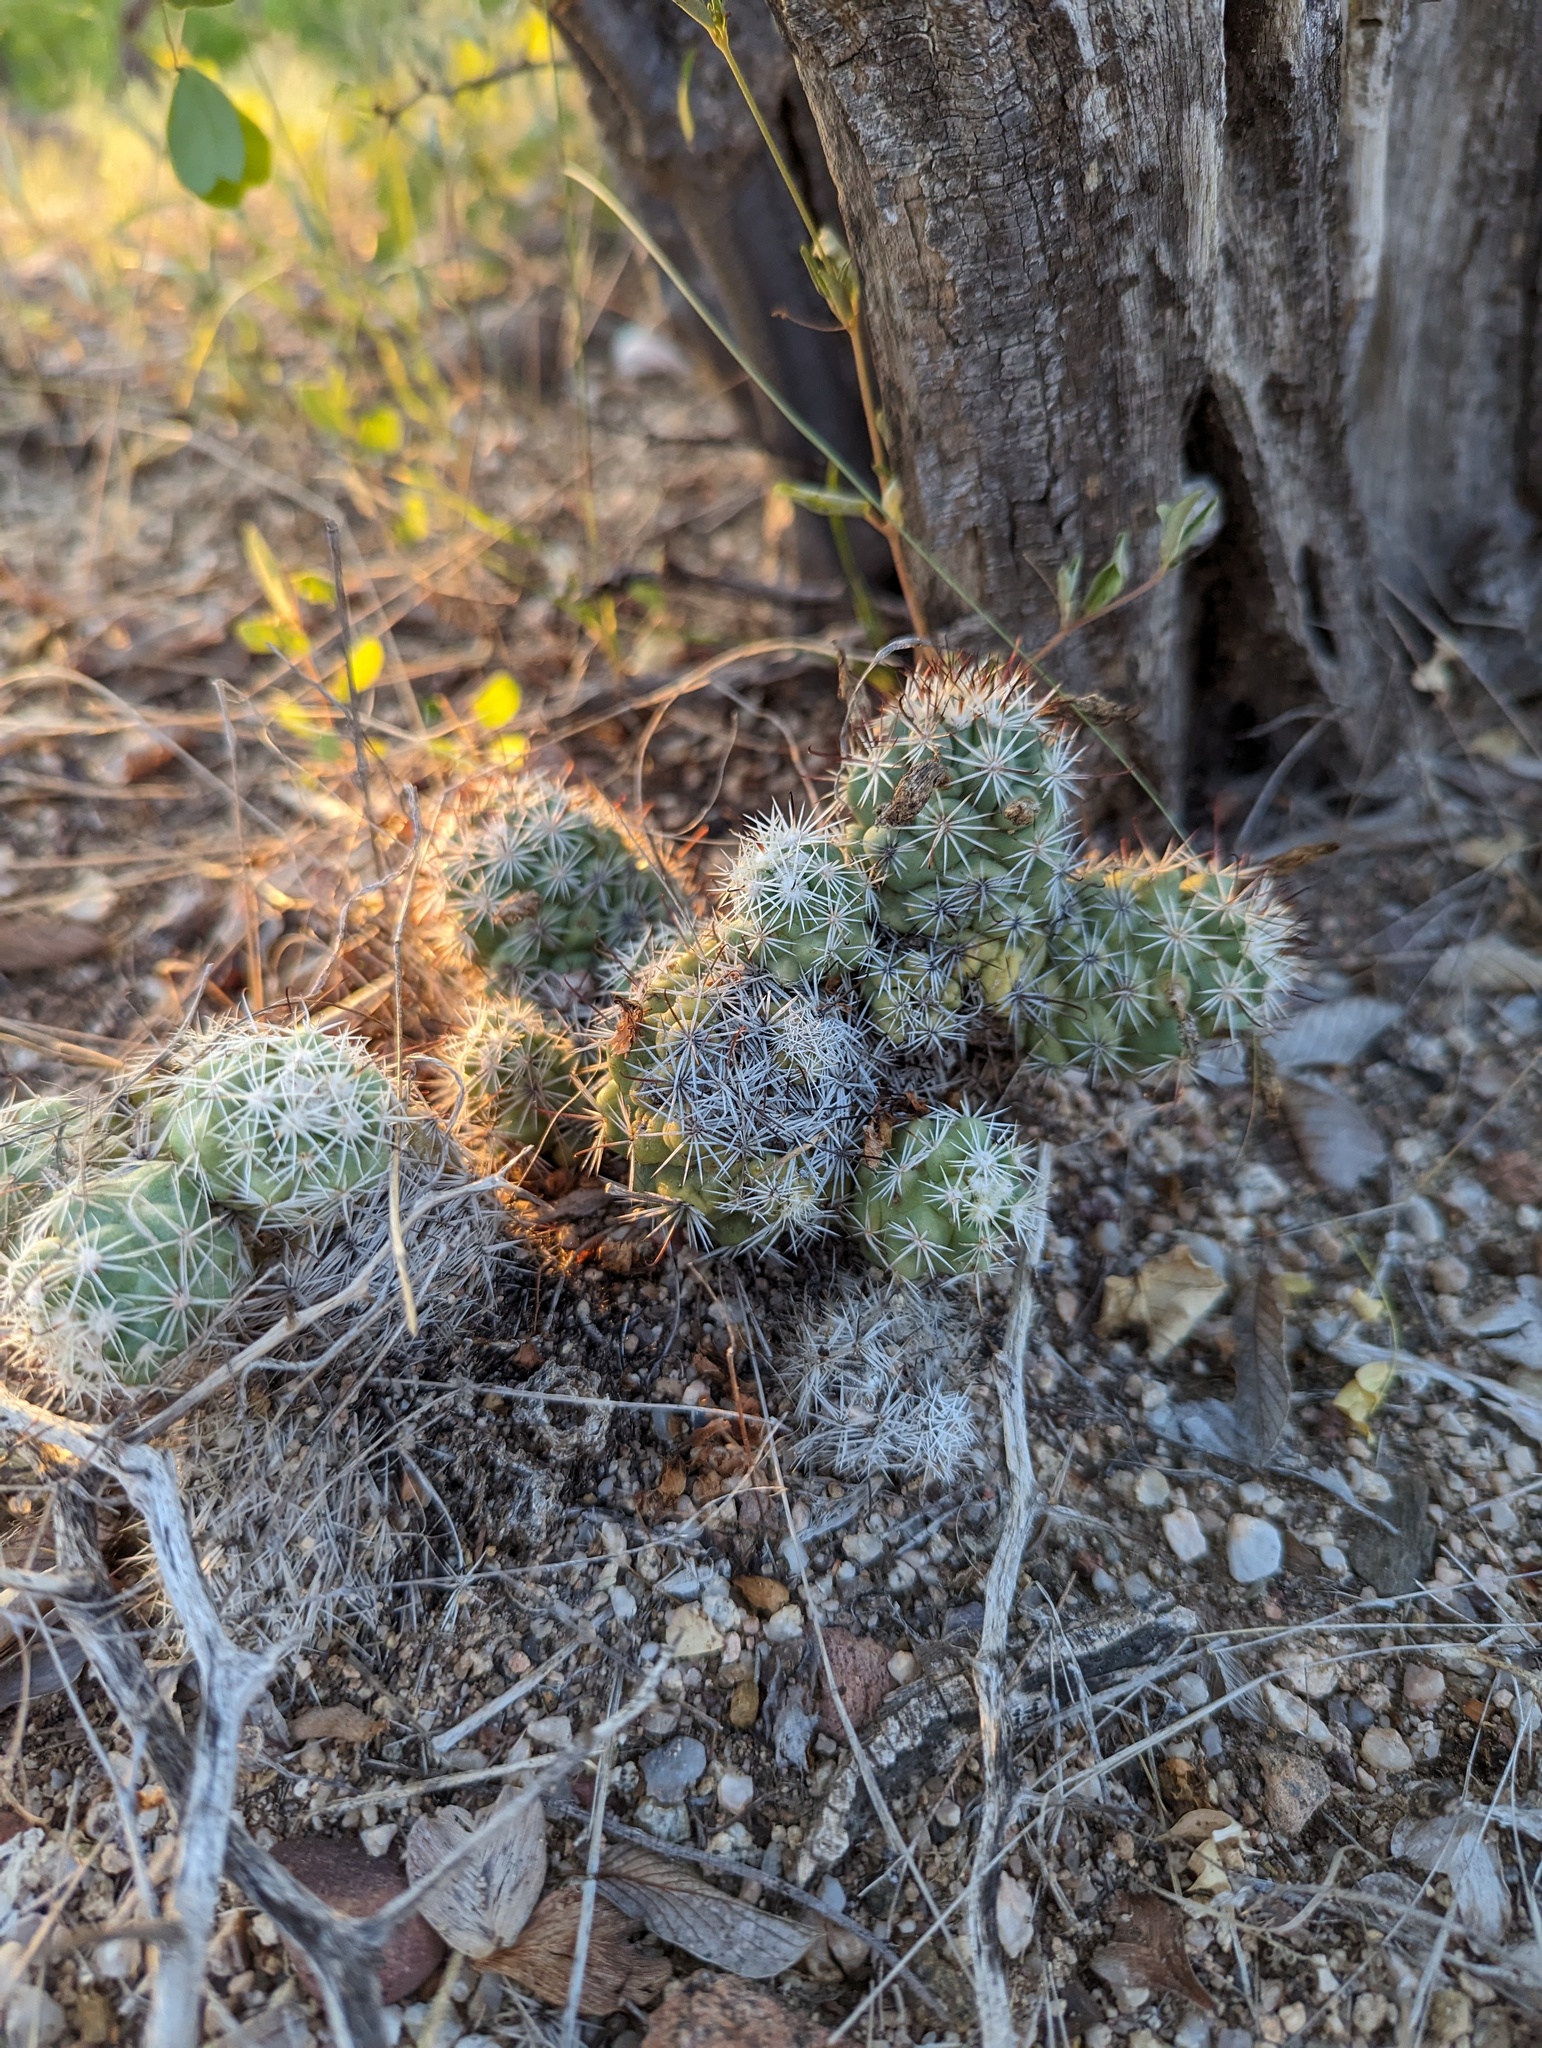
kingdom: Plantae
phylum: Tracheophyta
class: Magnoliopsida
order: Caryophyllales
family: Cactaceae
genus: Cochemiea
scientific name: Cochemiea schumannii
